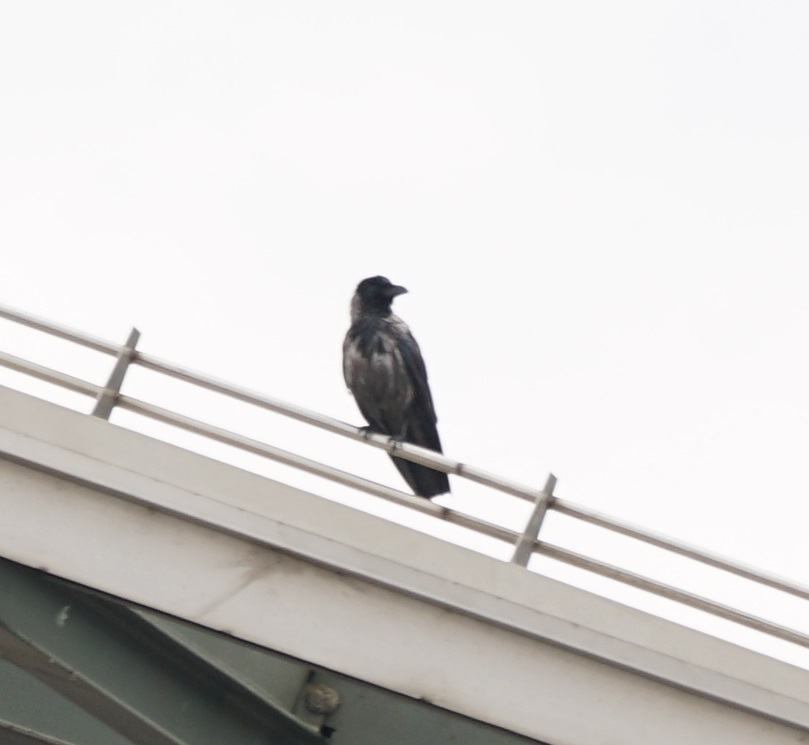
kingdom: Animalia
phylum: Chordata
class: Aves
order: Passeriformes
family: Corvidae
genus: Corvus
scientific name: Corvus cornix
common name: Hooded crow
